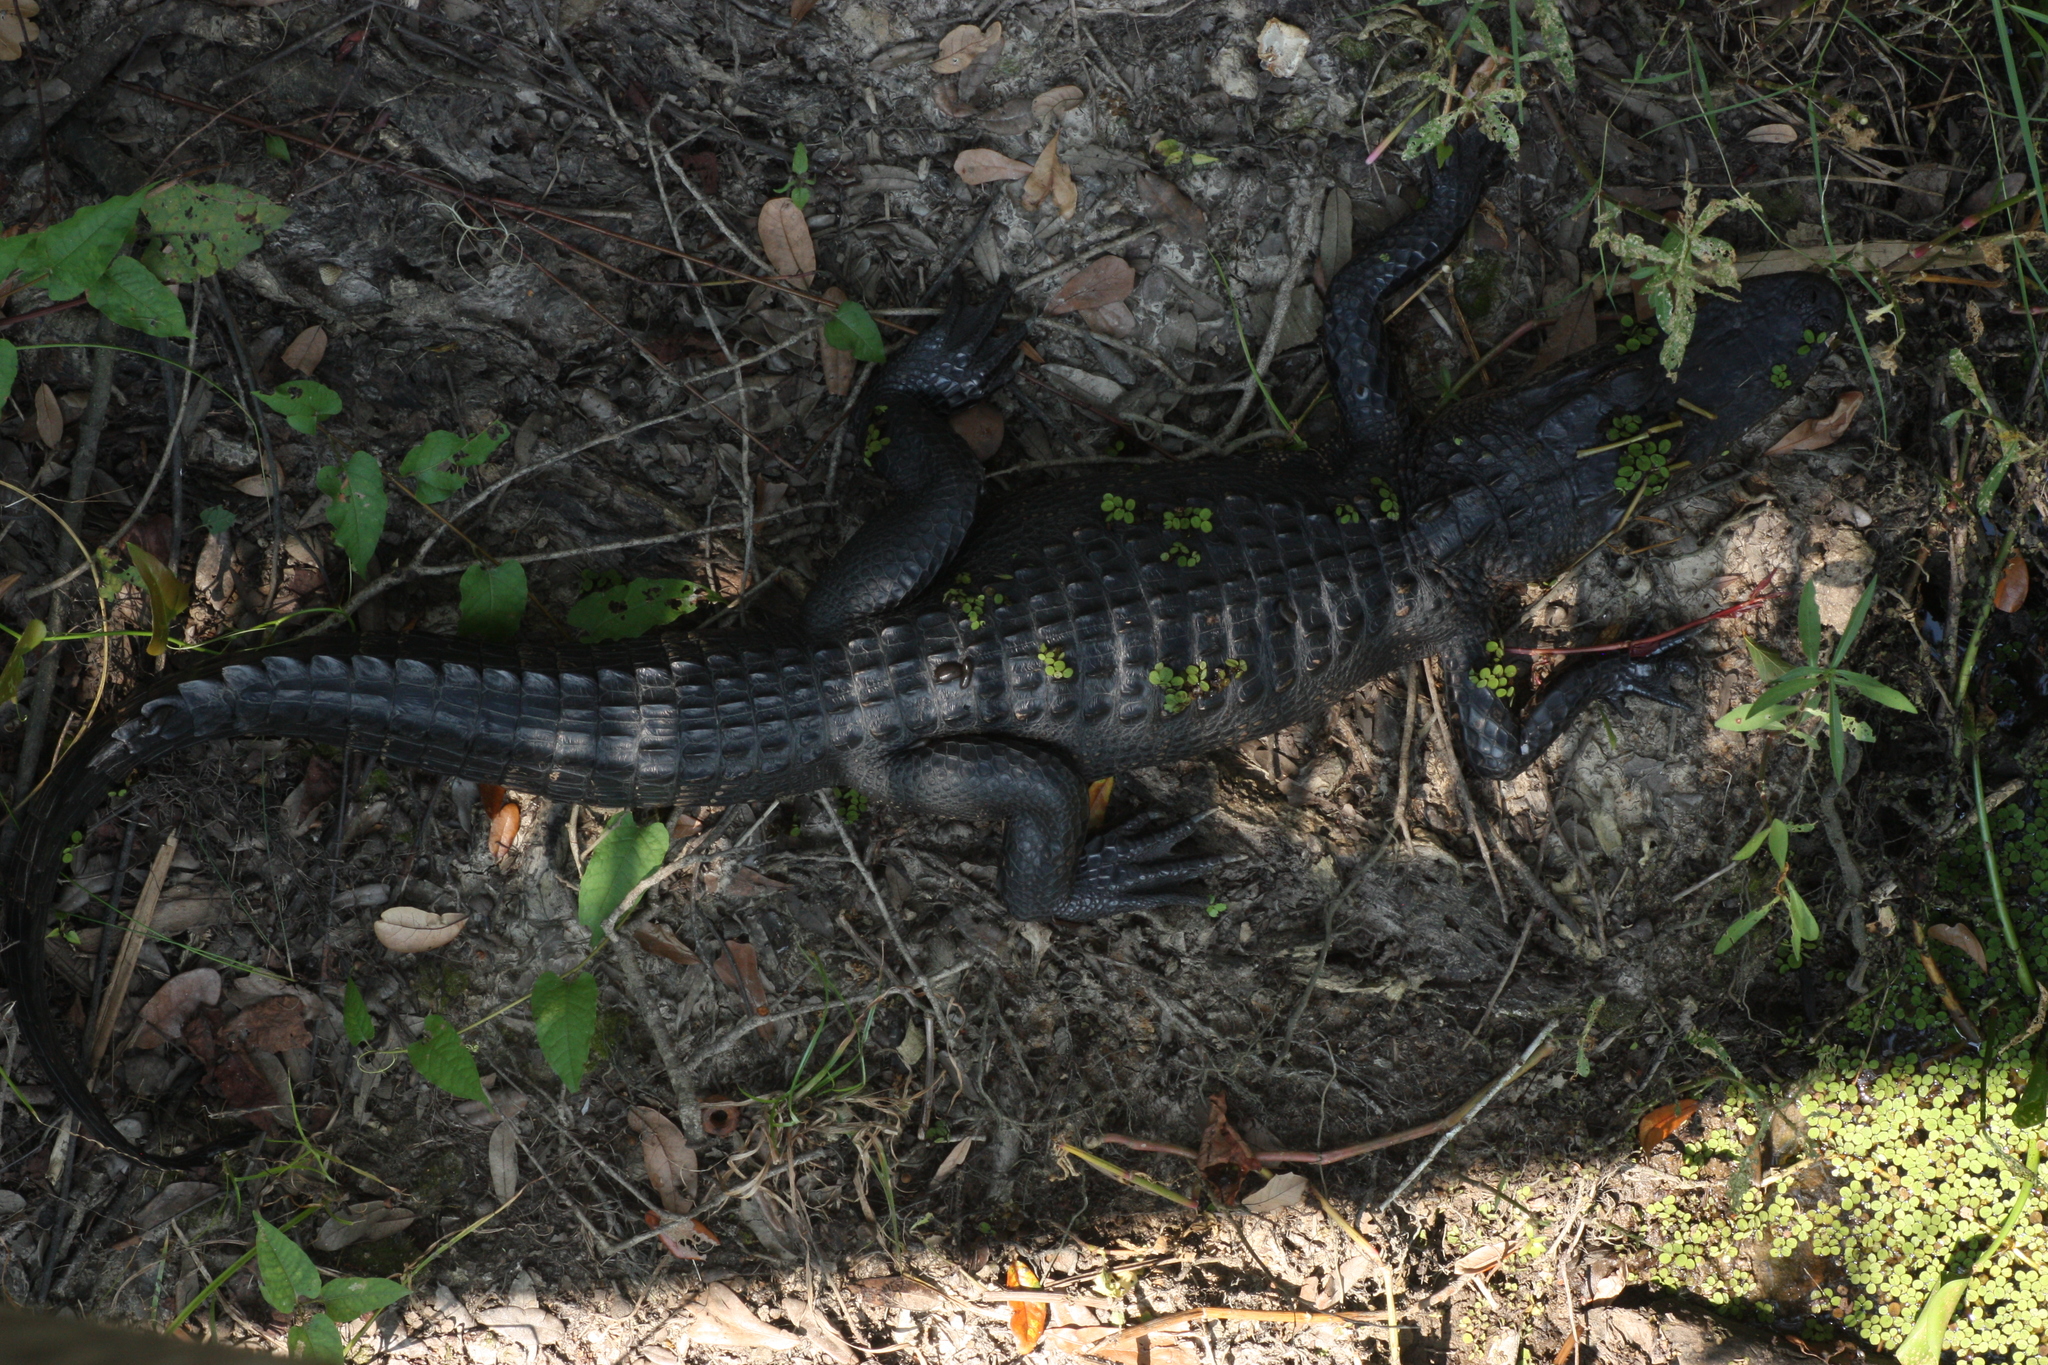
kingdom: Animalia
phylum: Chordata
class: Crocodylia
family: Alligatoridae
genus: Alligator
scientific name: Alligator mississippiensis
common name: American alligator
